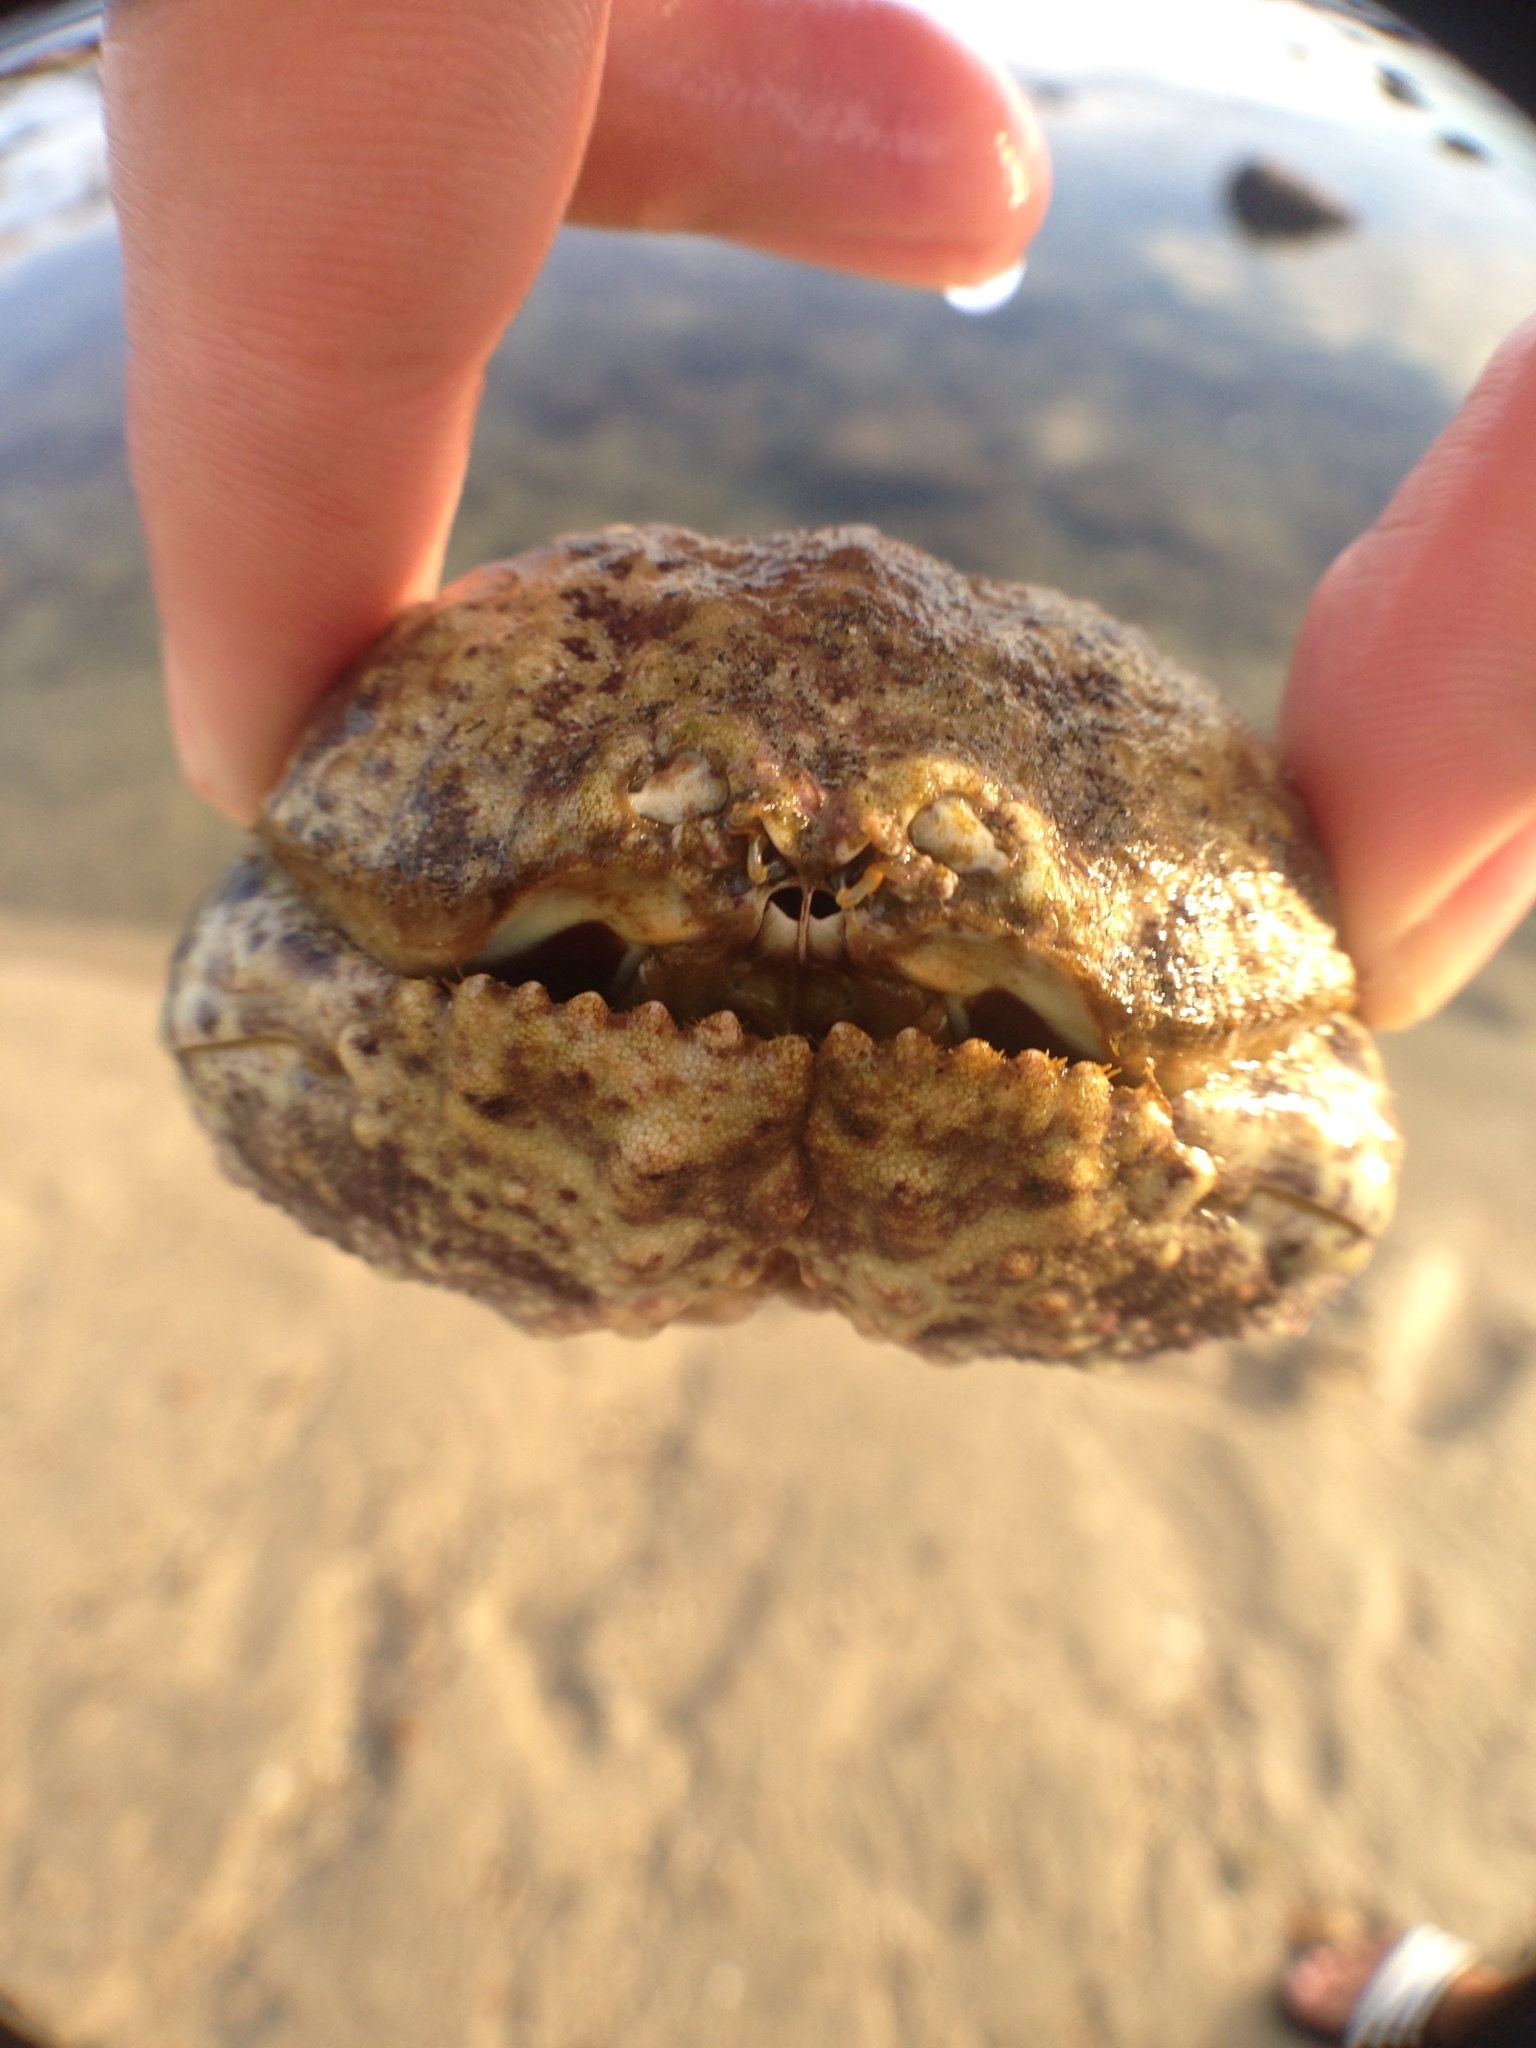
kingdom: Animalia
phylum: Arthropoda
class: Malacostraca
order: Decapoda
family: Calappidae
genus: Calappa
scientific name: Calappa convexa
